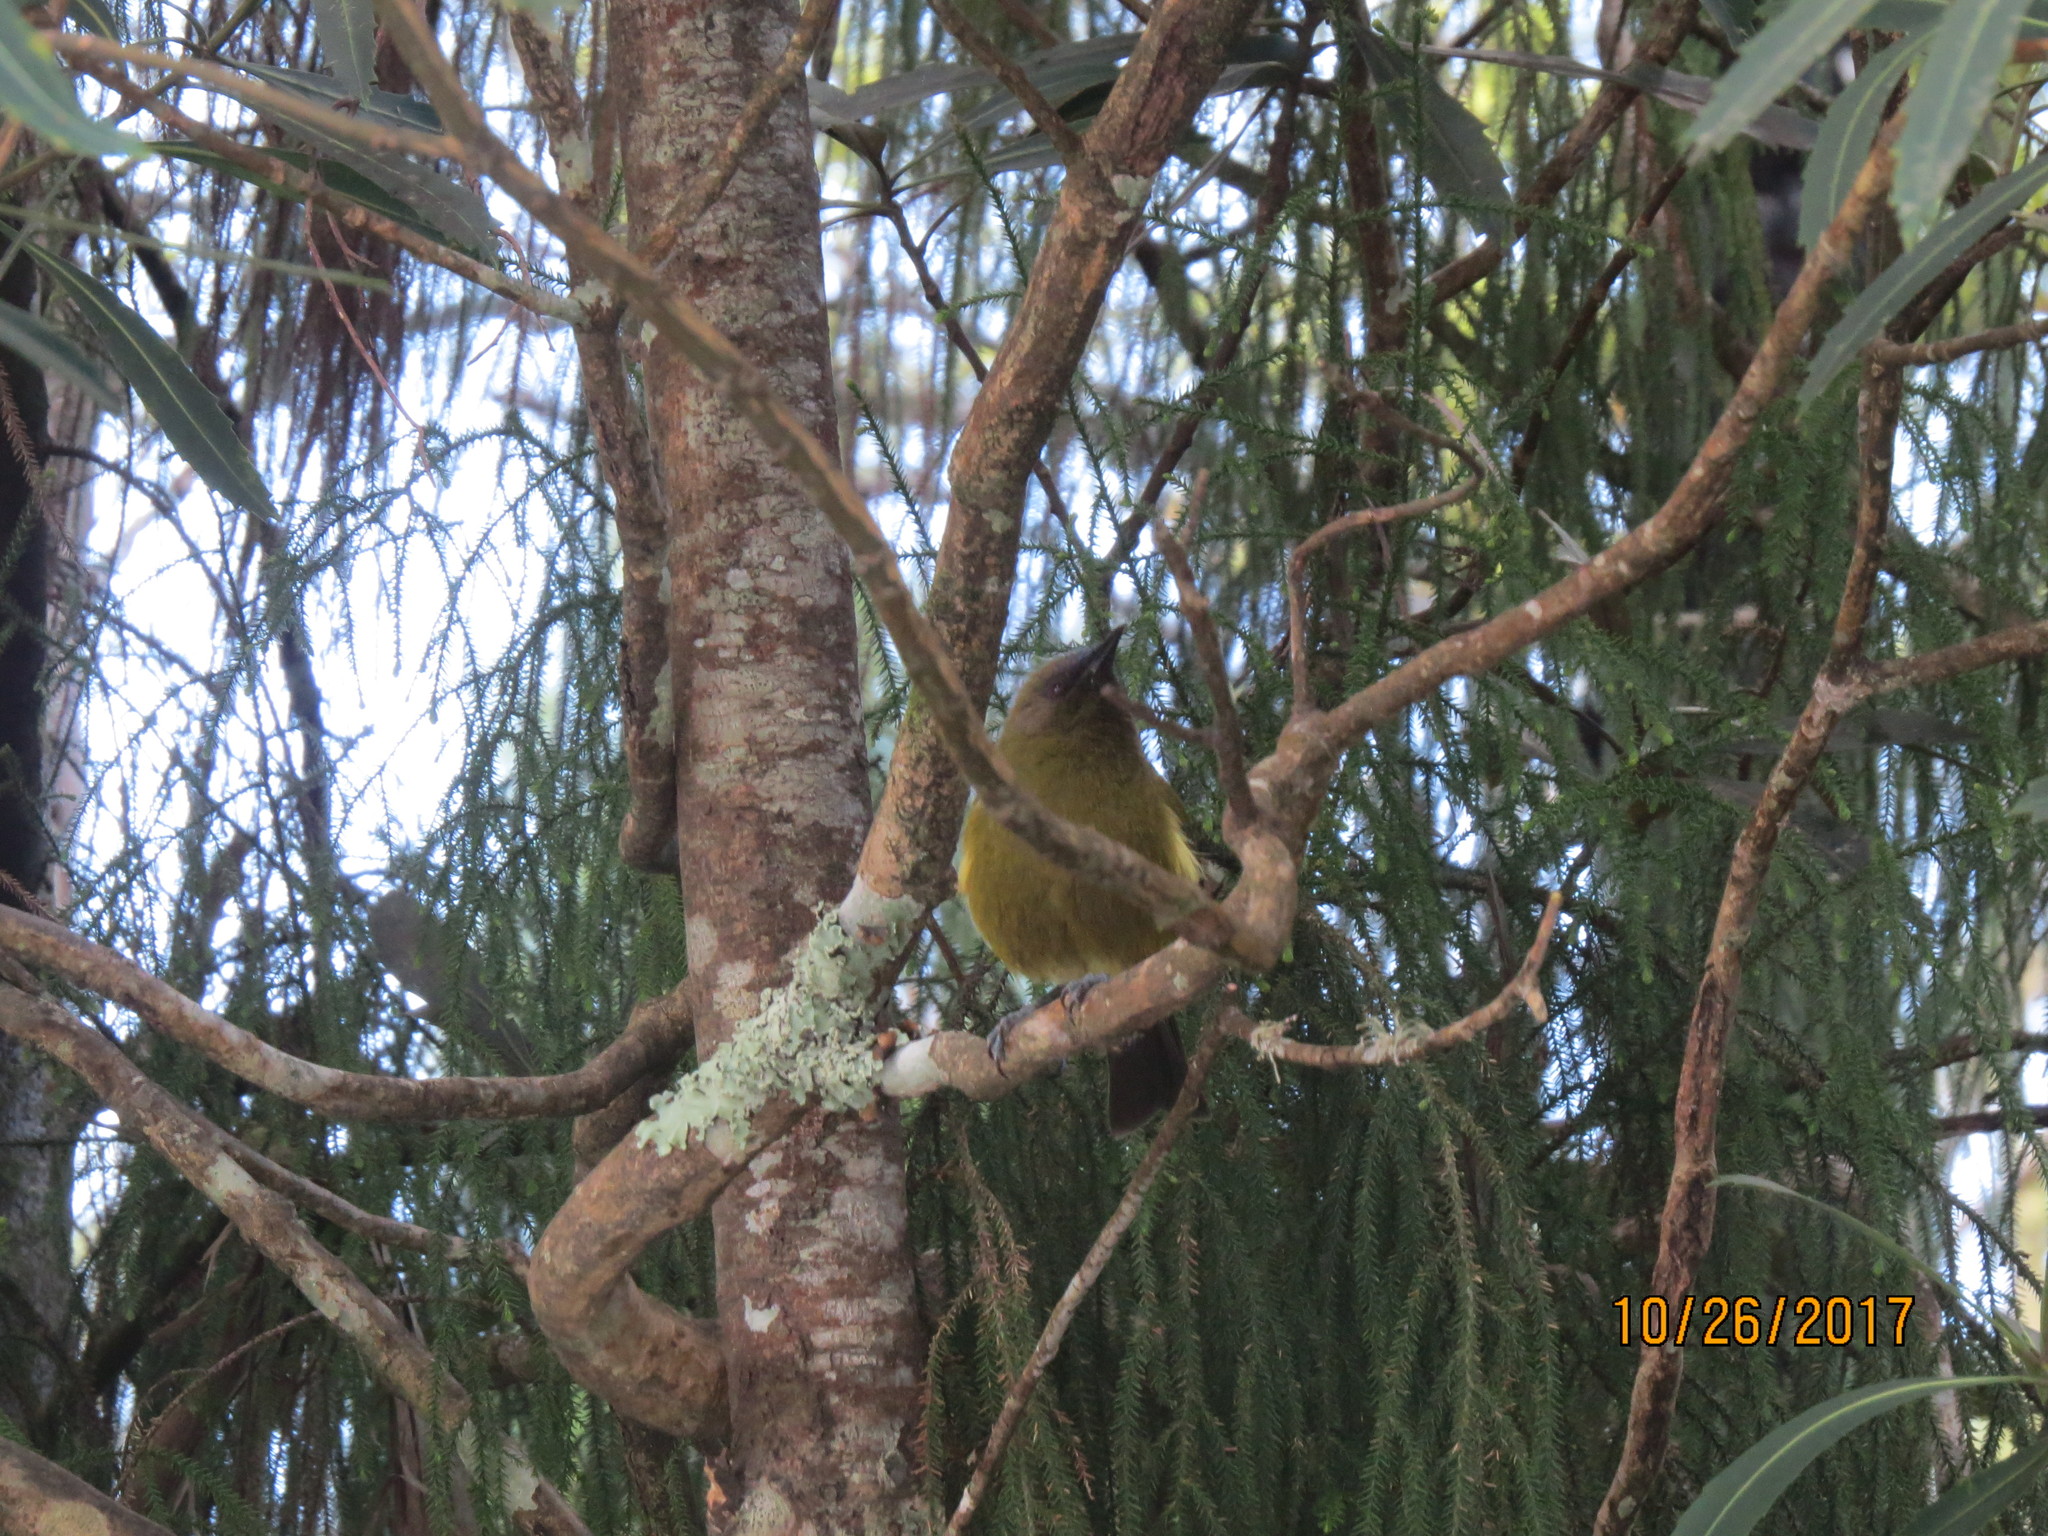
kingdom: Animalia
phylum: Chordata
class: Aves
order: Passeriformes
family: Meliphagidae
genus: Anthornis
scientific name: Anthornis melanura
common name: New zealand bellbird
